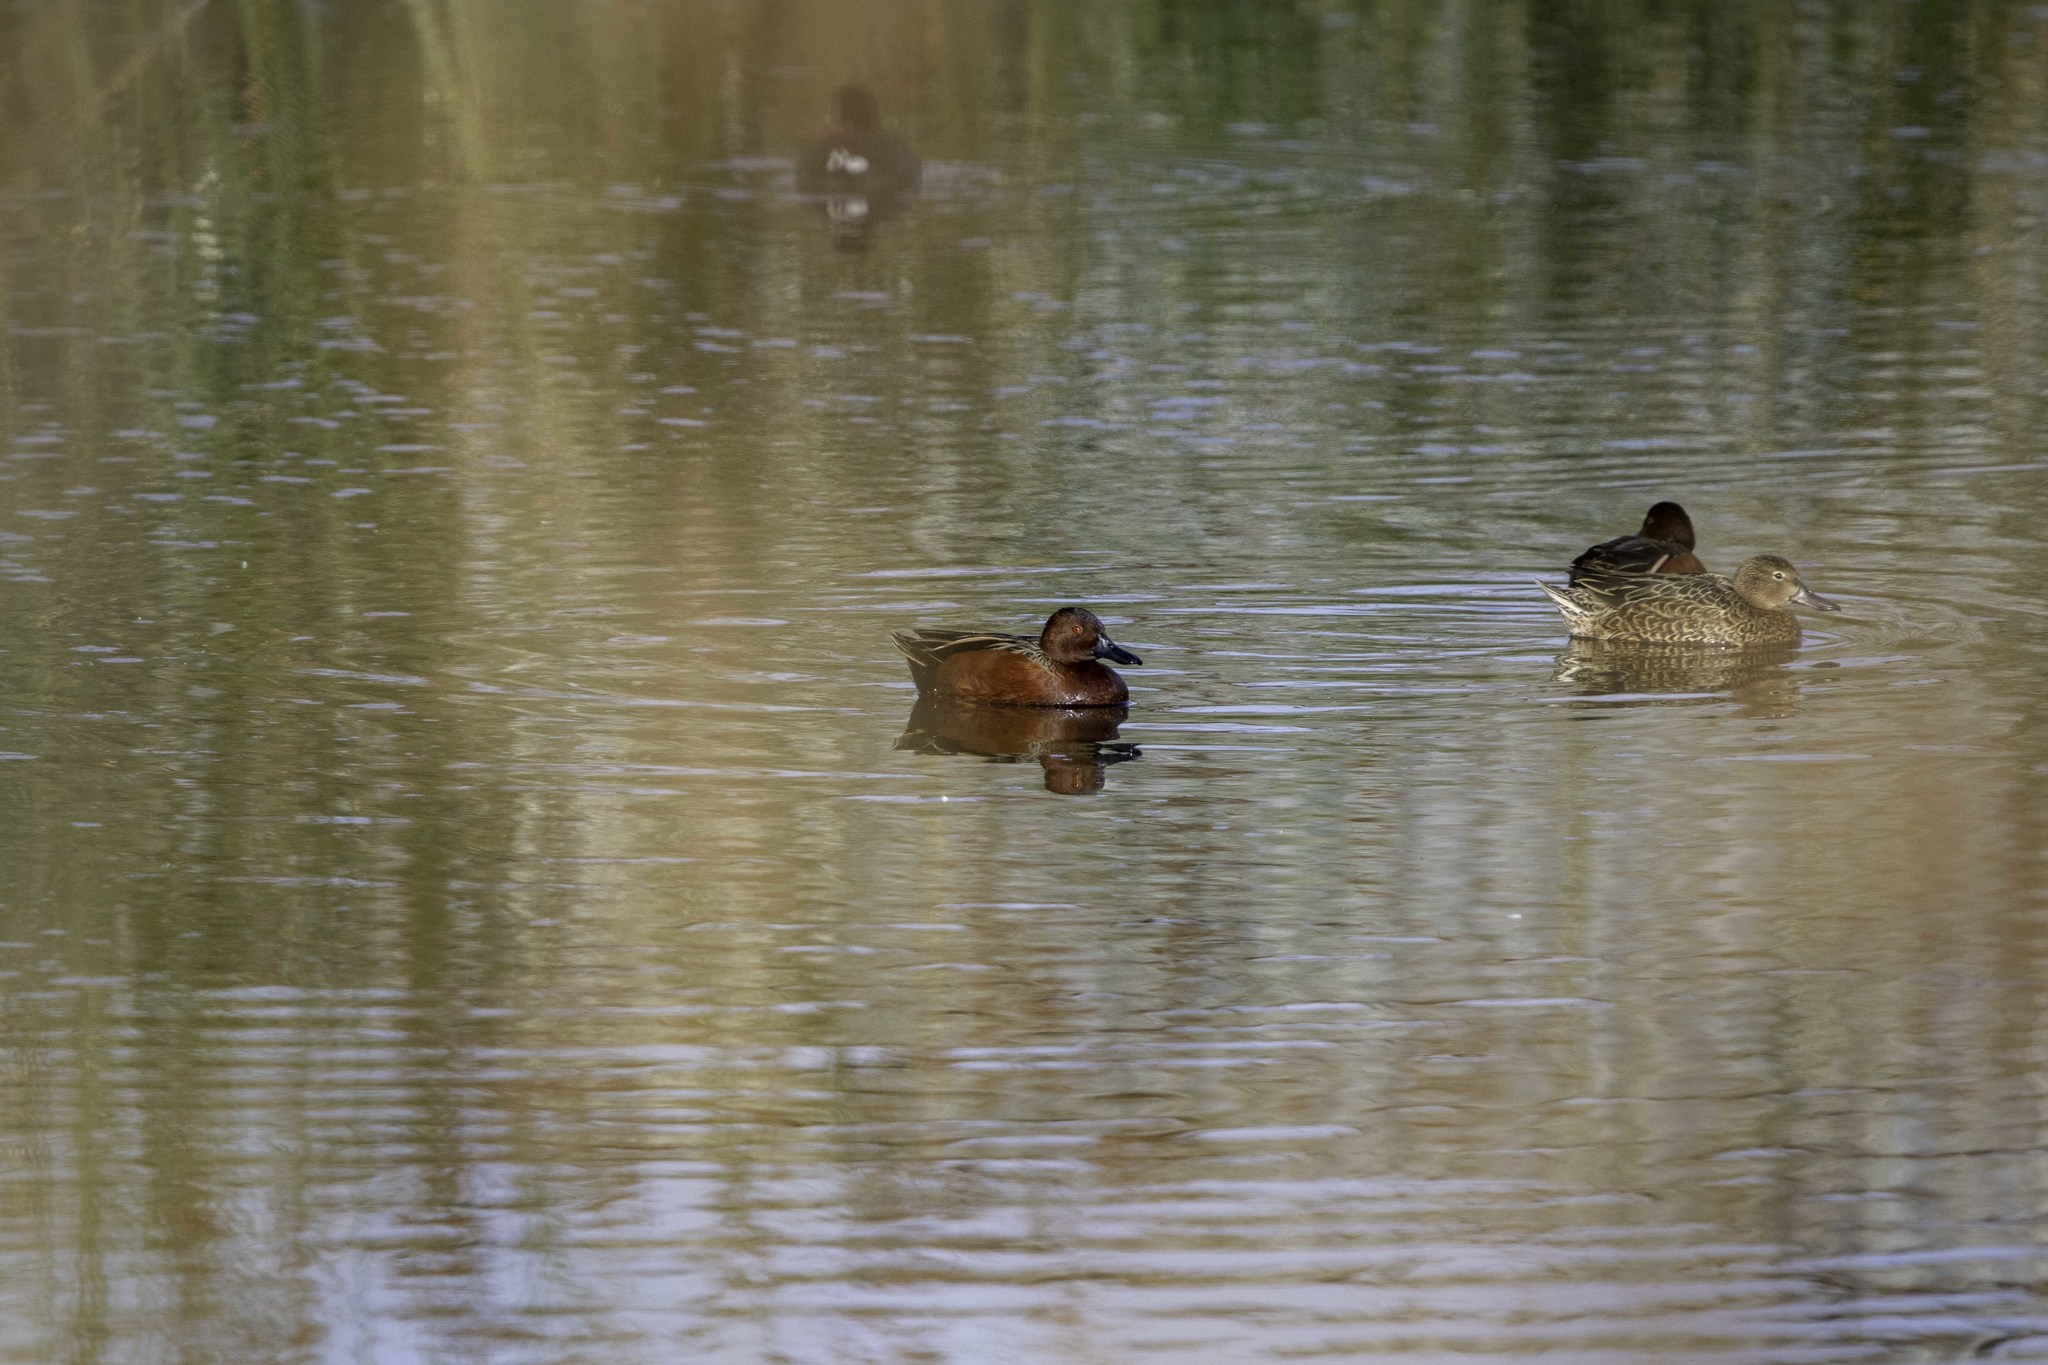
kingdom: Animalia
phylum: Chordata
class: Aves
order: Anseriformes
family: Anatidae
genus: Spatula
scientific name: Spatula cyanoptera
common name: Cinnamon teal
